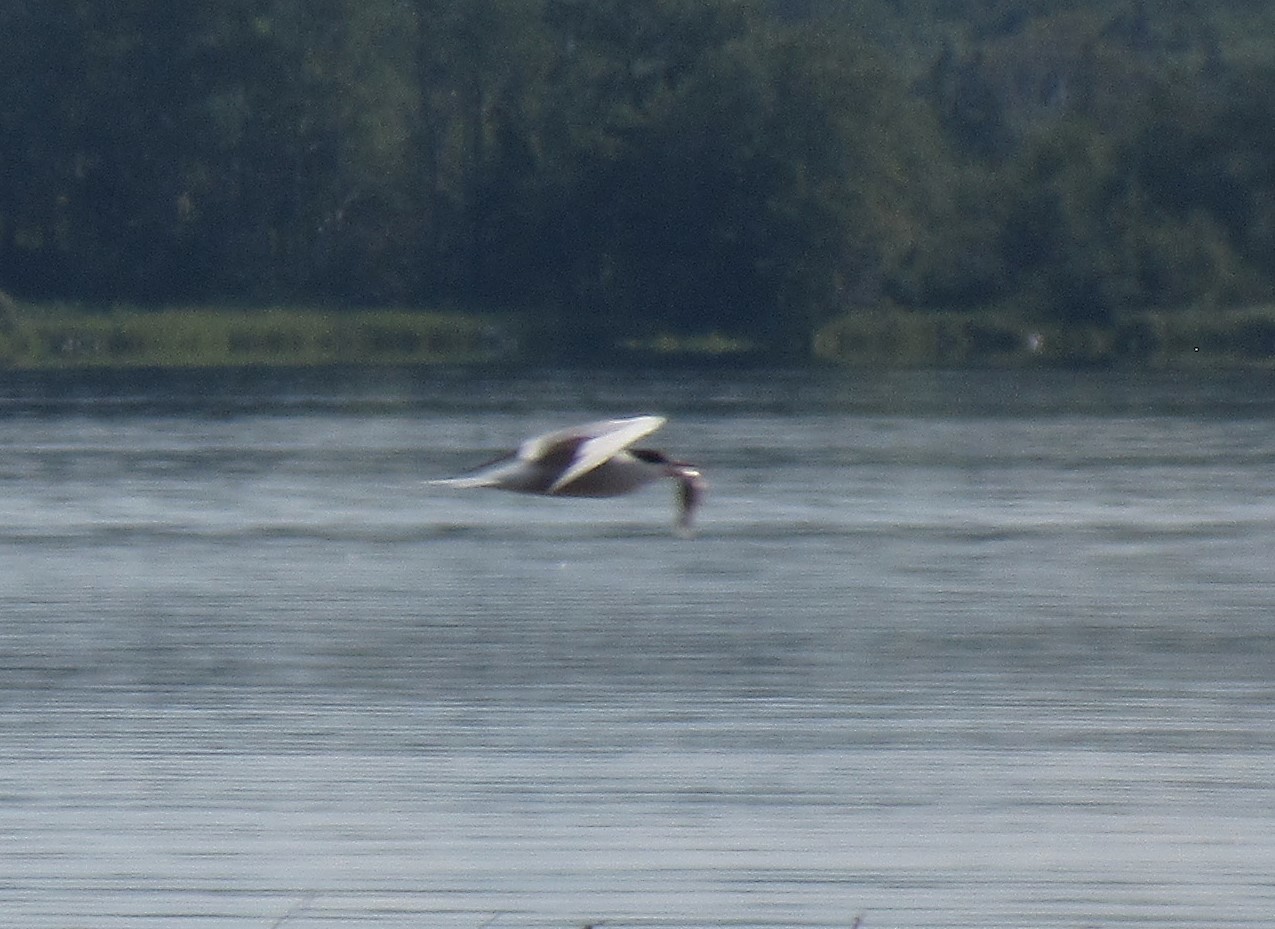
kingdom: Animalia
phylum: Chordata
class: Aves
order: Charadriiformes
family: Laridae
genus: Sterna
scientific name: Sterna hirundo
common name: Common tern
